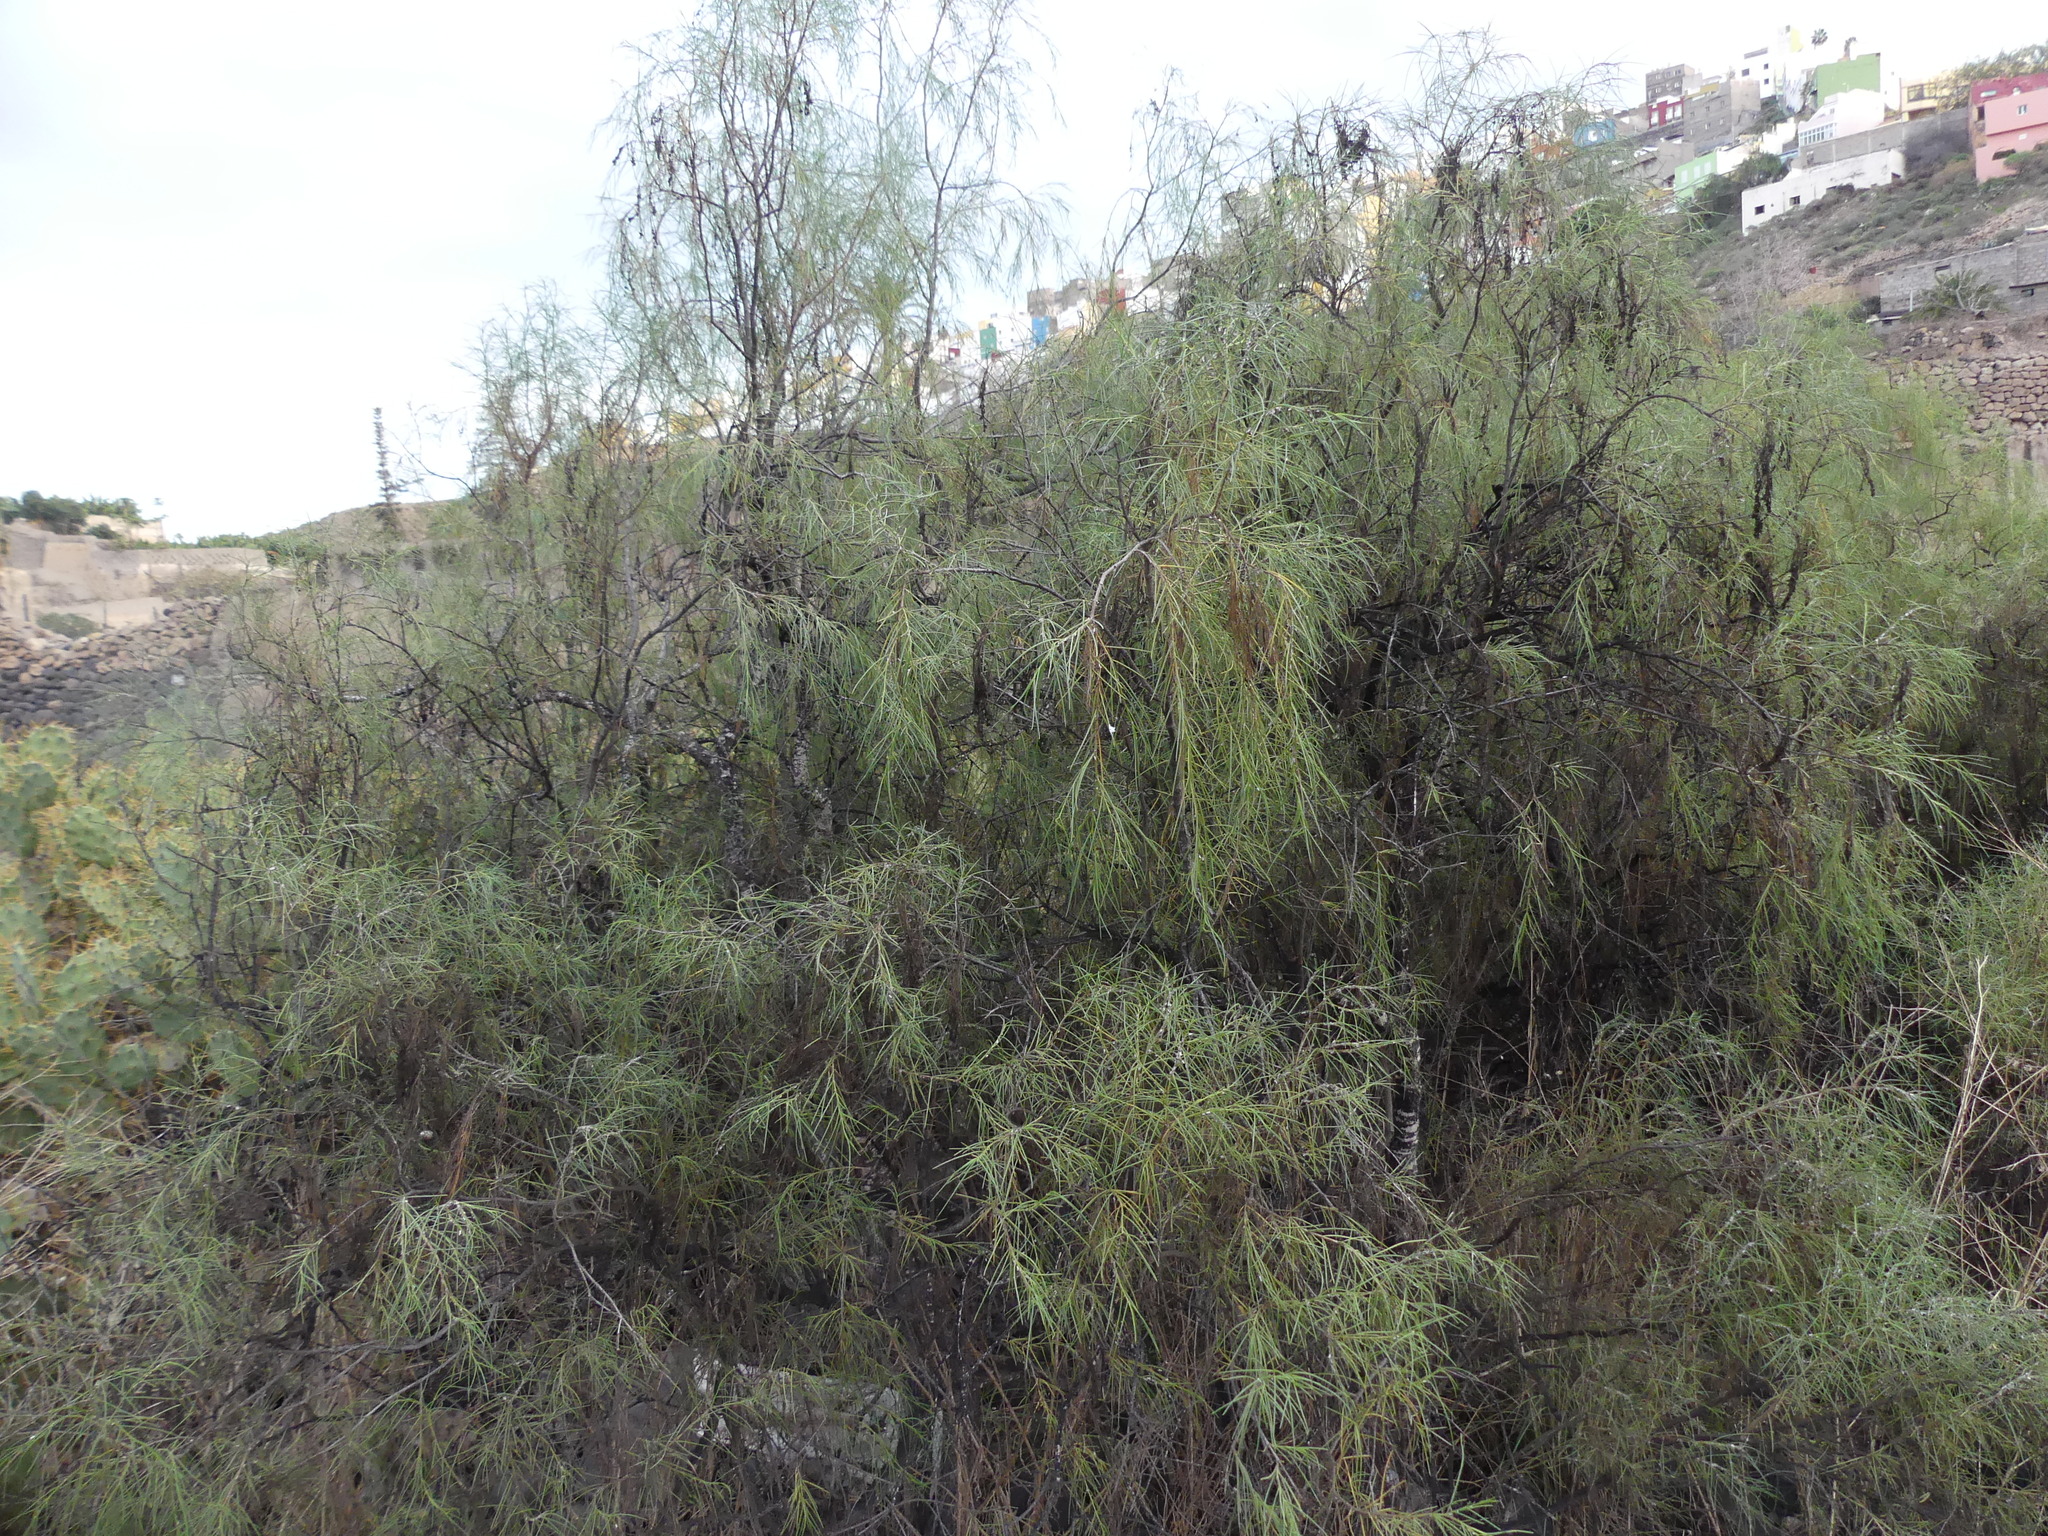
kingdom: Plantae
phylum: Tracheophyta
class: Magnoliopsida
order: Gentianales
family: Rubiaceae
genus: Plocama
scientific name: Plocama pendula
